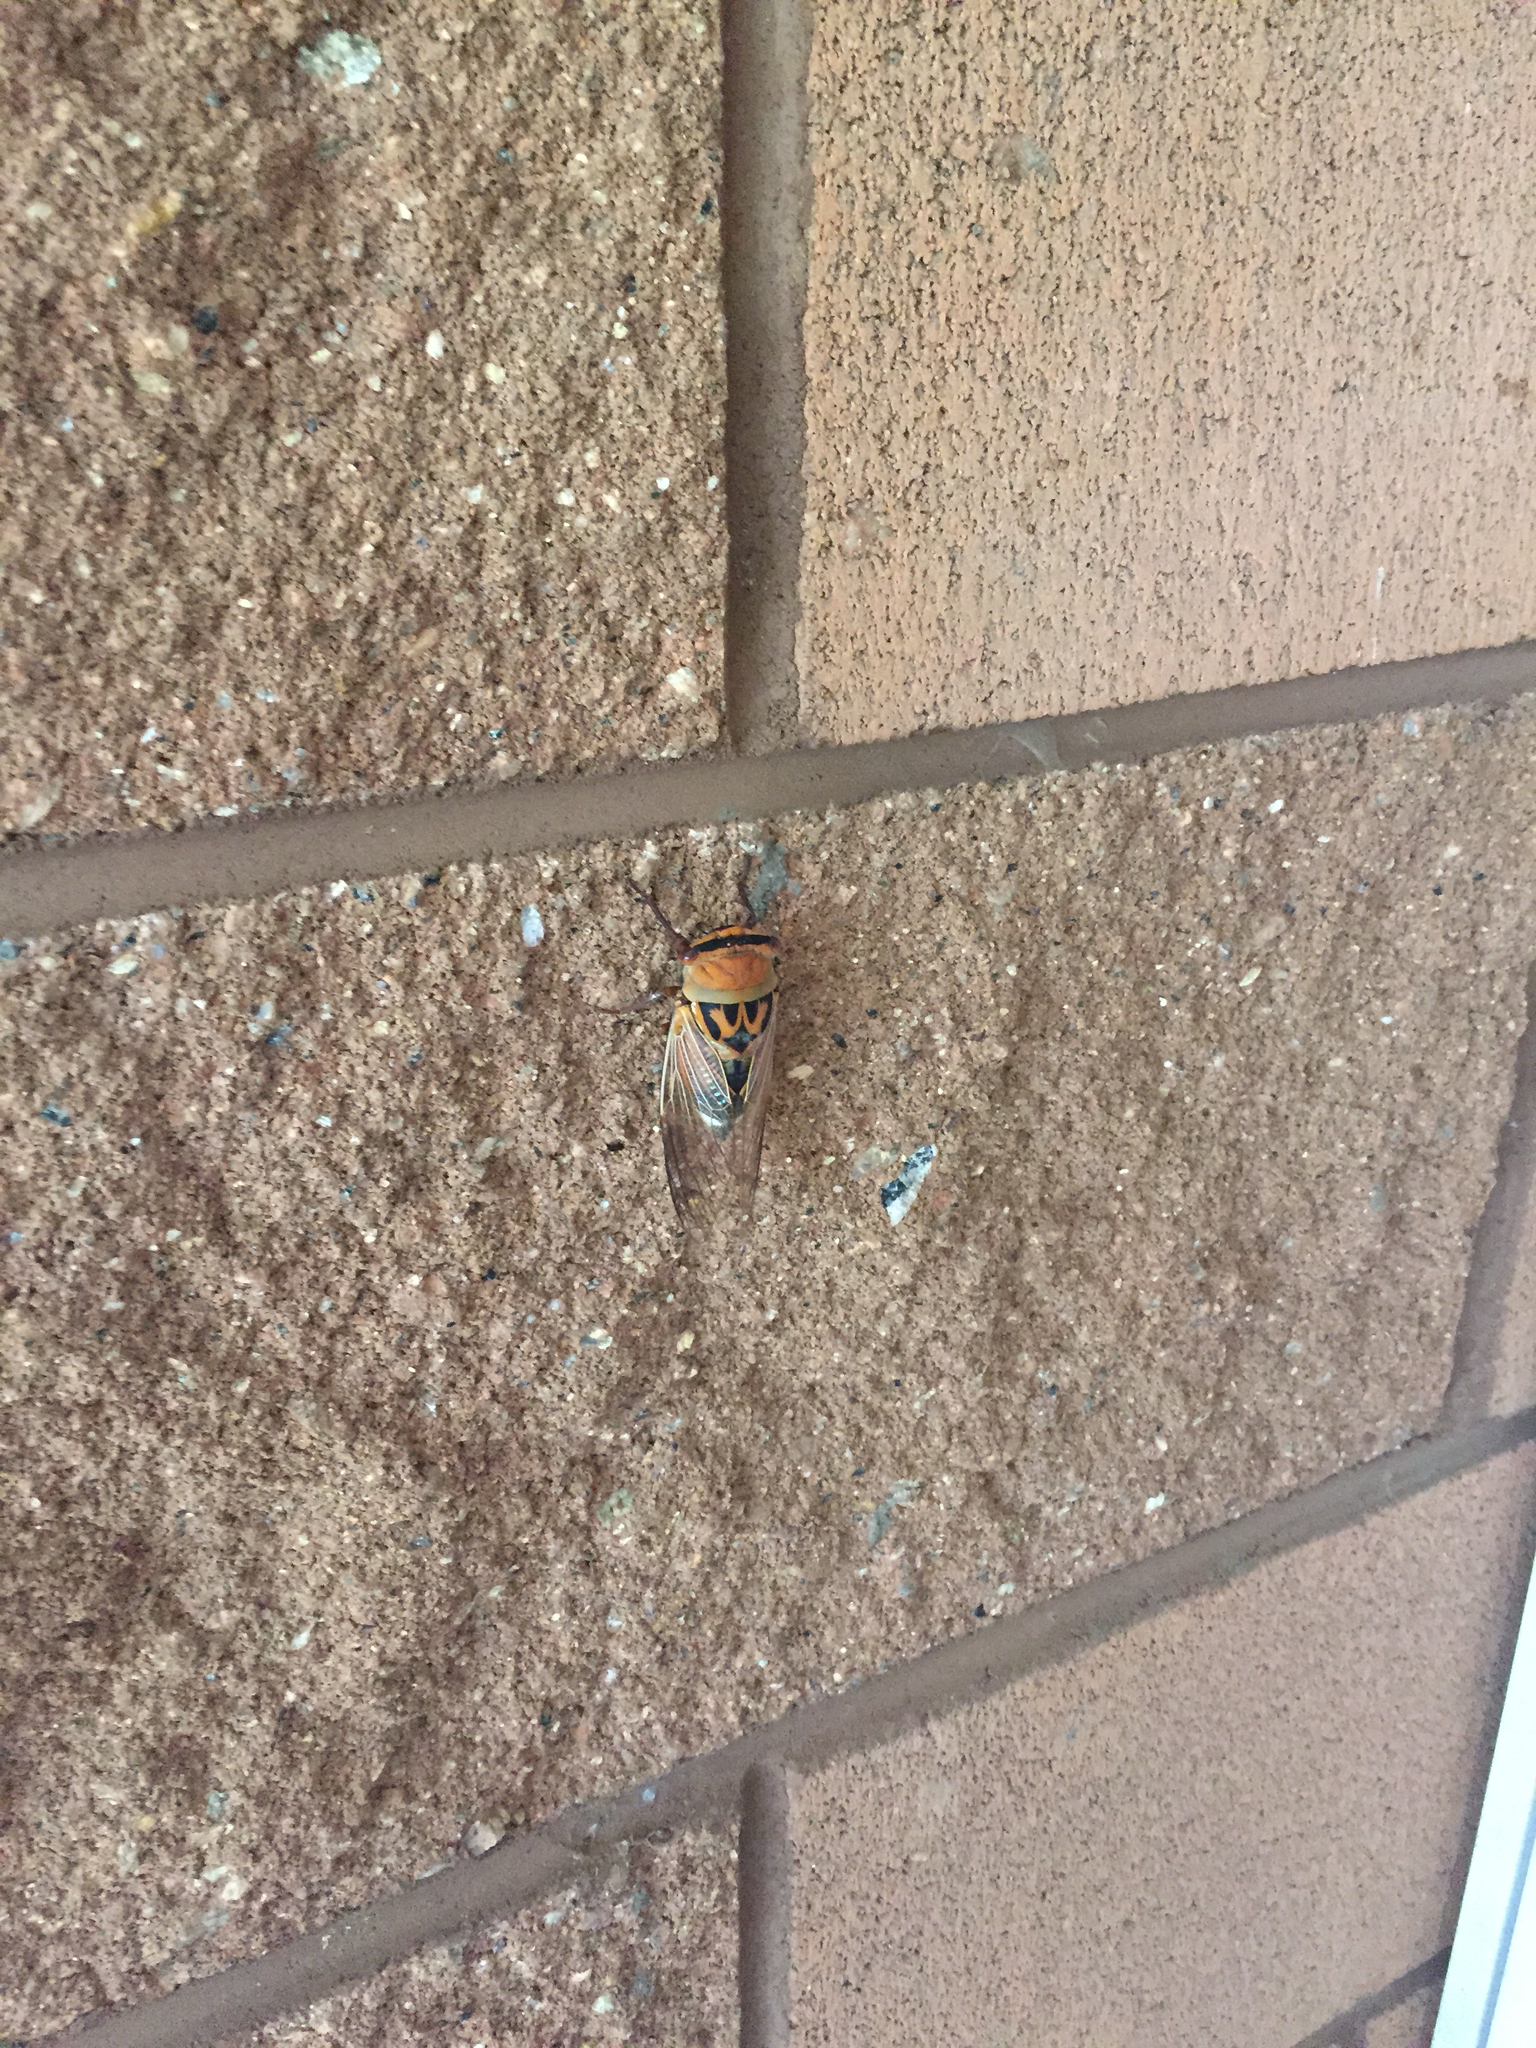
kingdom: Animalia
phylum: Arthropoda
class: Insecta
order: Hemiptera
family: Cicadidae
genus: Thopha
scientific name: Thopha colorata
